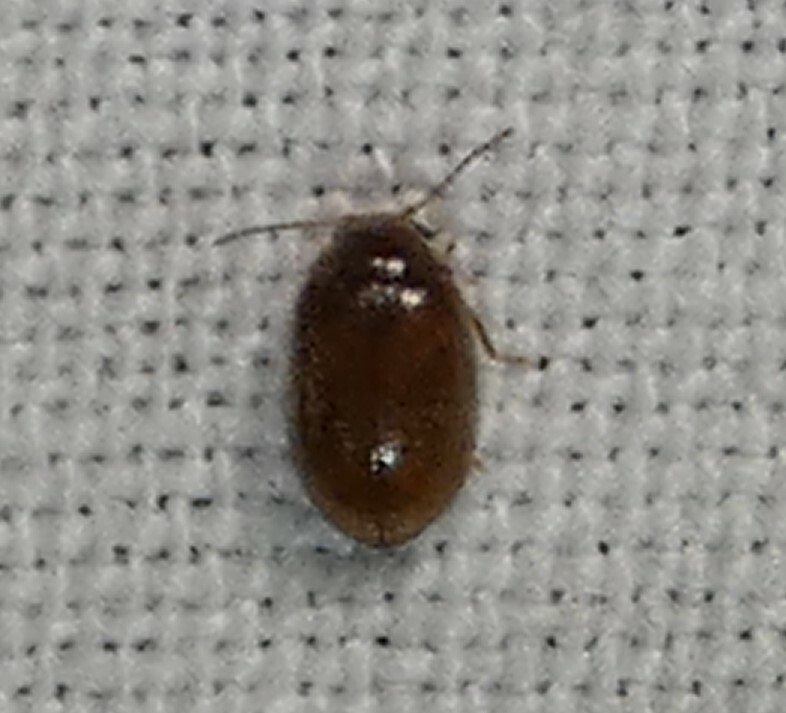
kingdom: Animalia
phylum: Arthropoda
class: Insecta
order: Coleoptera
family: Scirtidae
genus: Contacyphon
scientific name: Contacyphon
